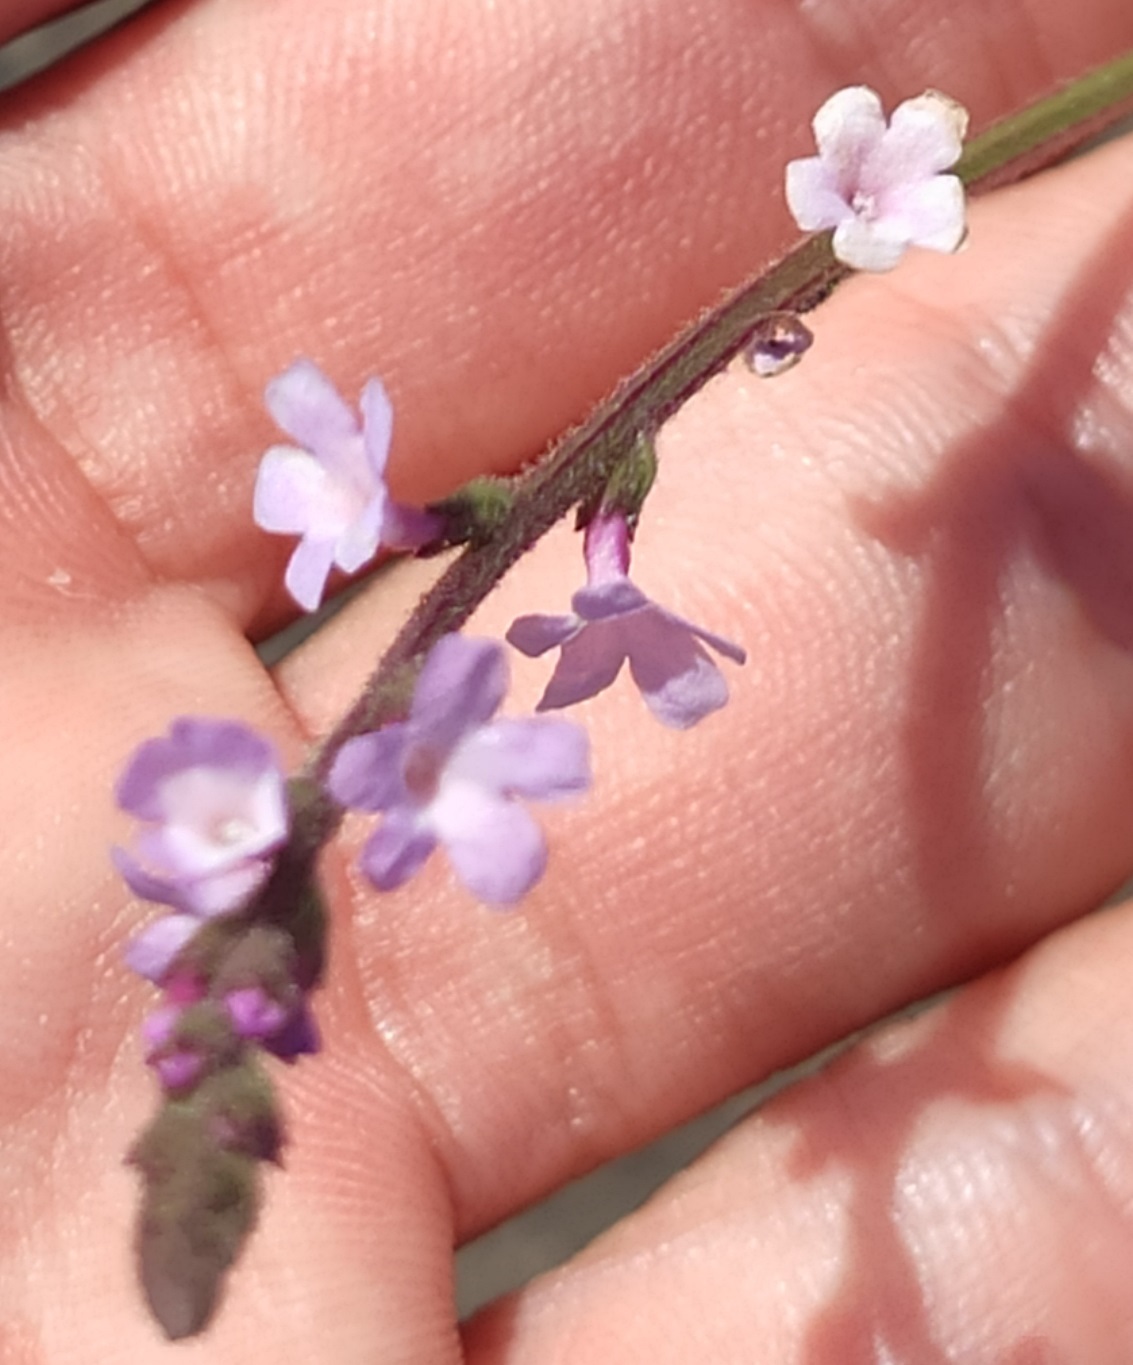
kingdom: Plantae
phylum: Tracheophyta
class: Magnoliopsida
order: Lamiales
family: Verbenaceae
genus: Verbena
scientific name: Verbena officinalis
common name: Vervain
